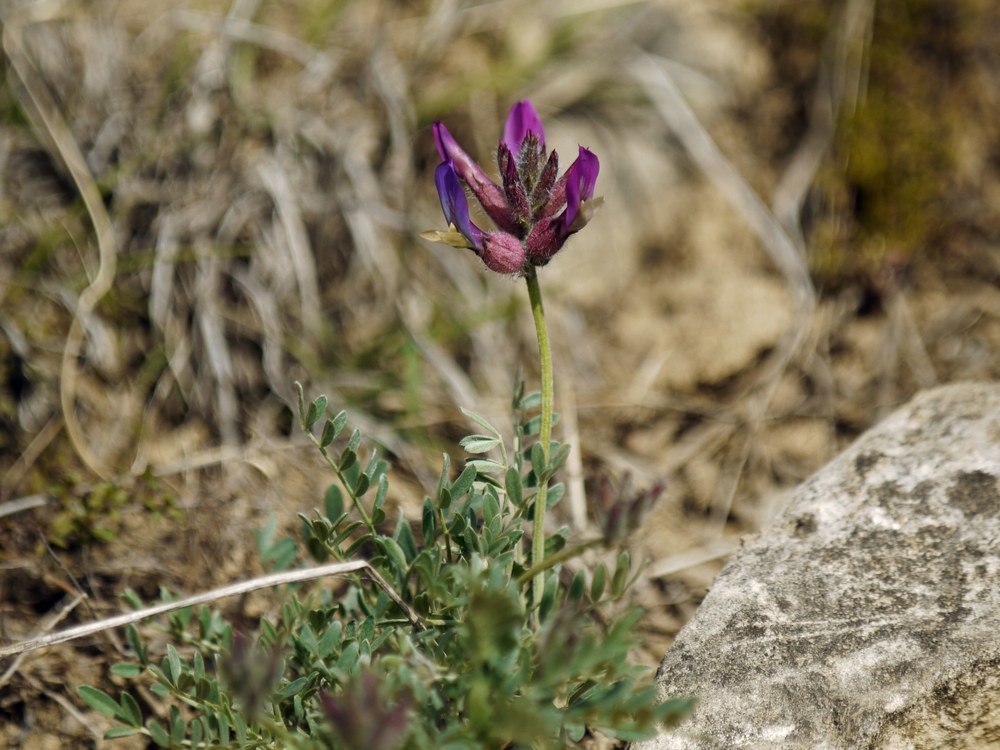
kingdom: Plantae
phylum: Tracheophyta
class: Magnoliopsida
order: Fabales
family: Fabaceae
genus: Astragalus
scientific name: Astragalus vesicarius
